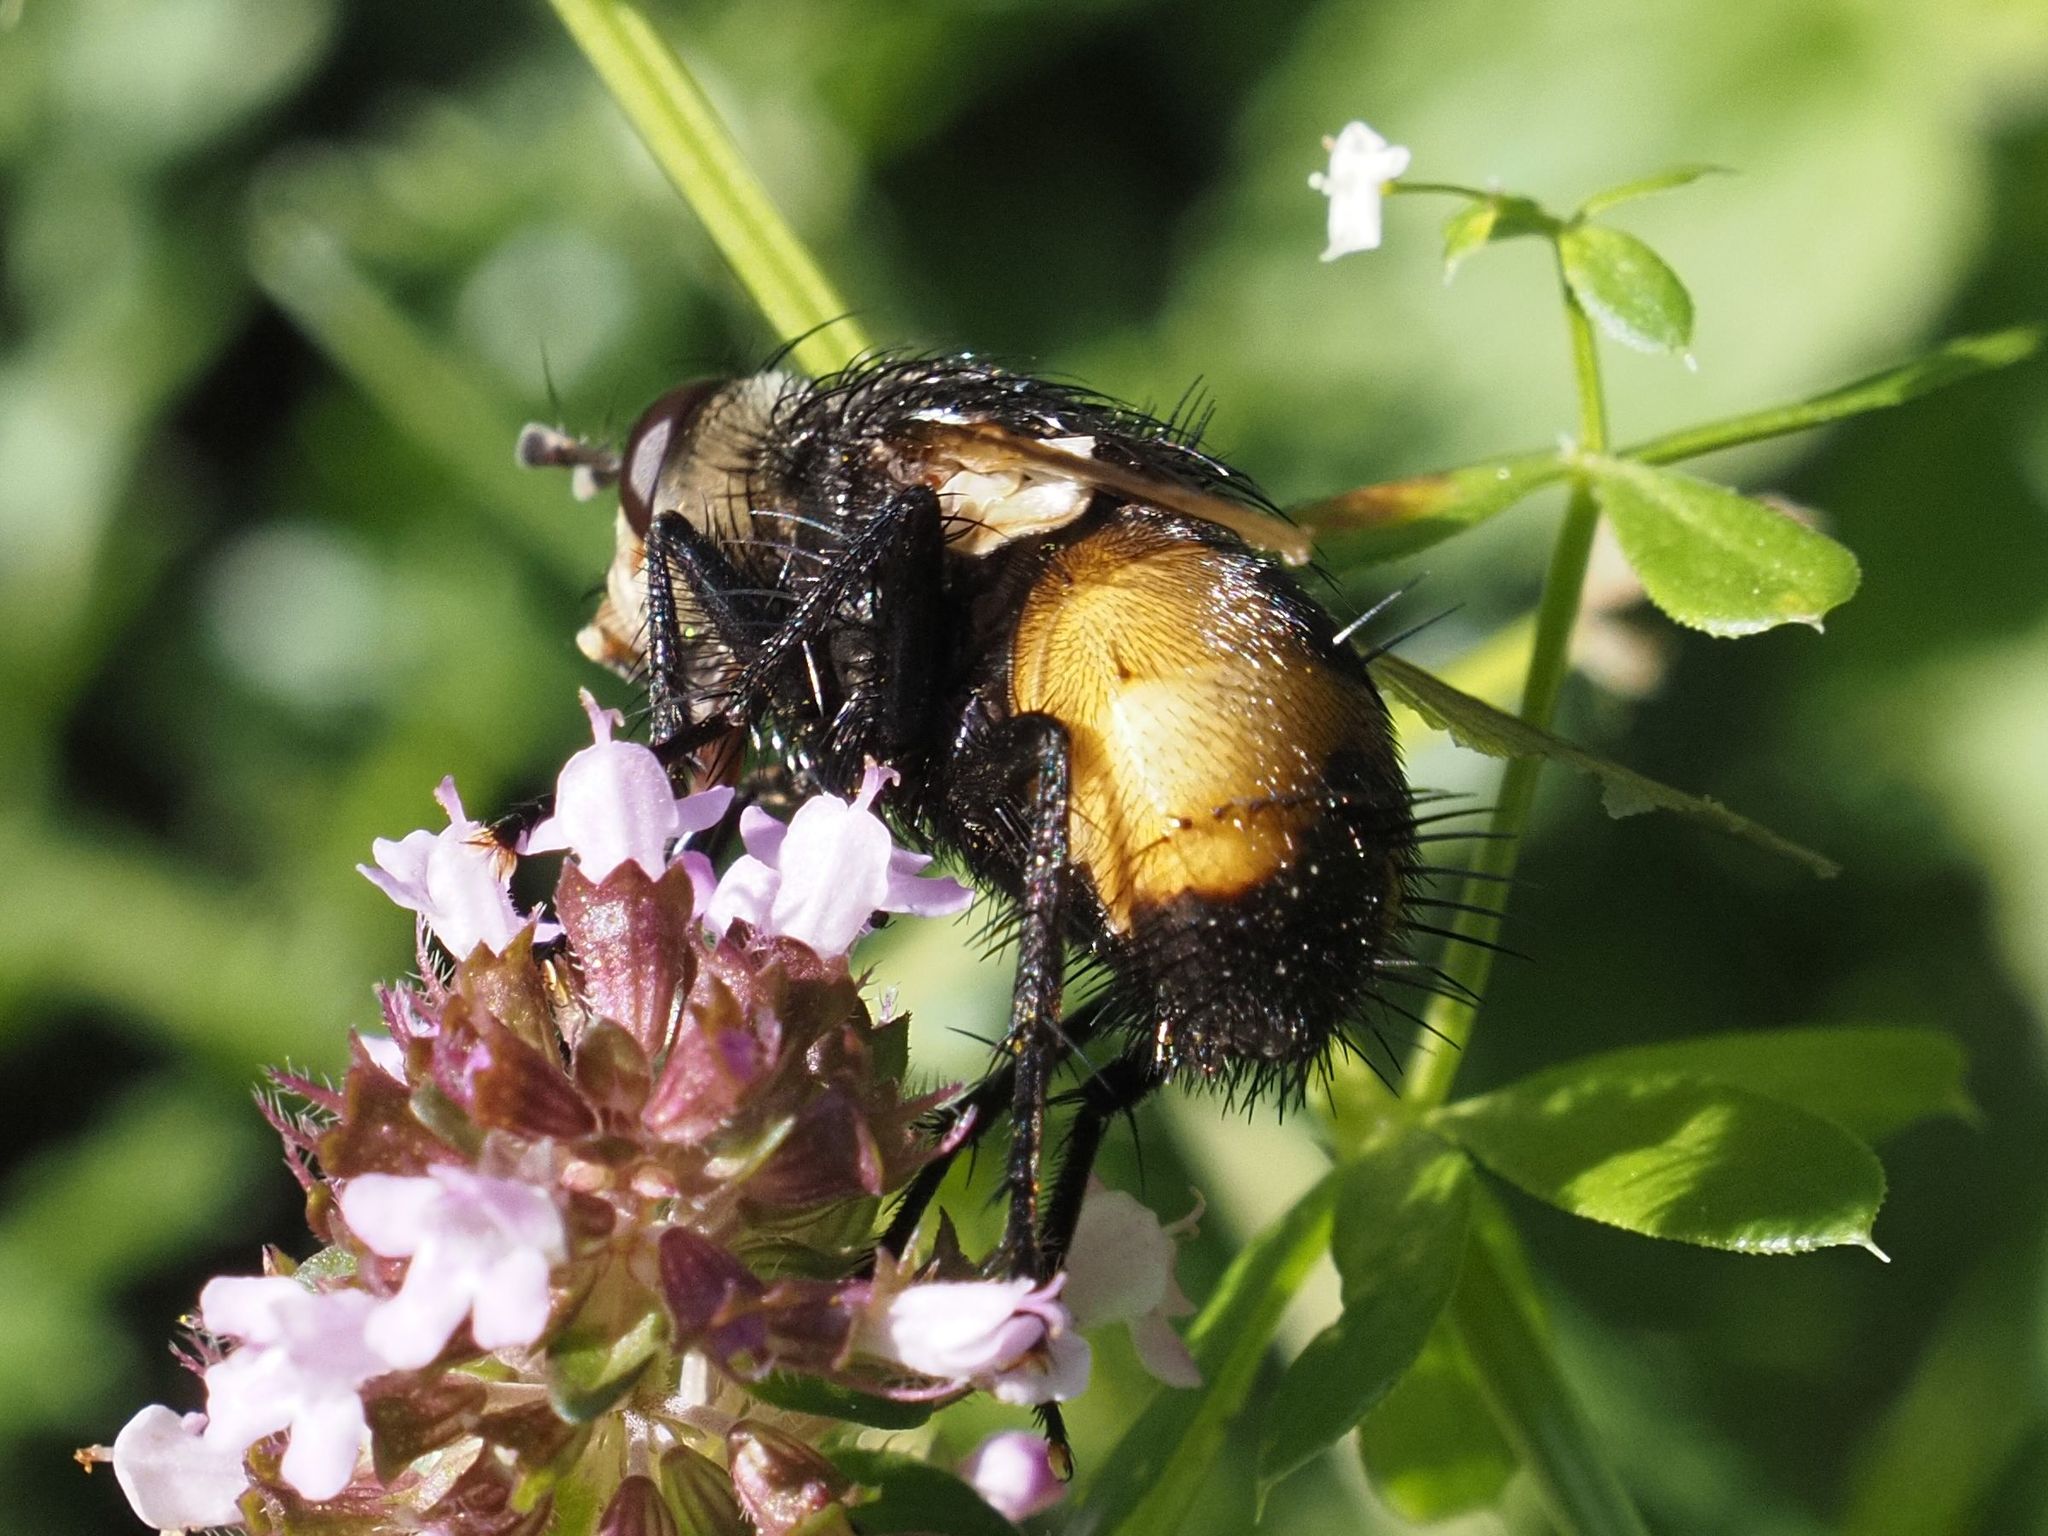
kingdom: Animalia
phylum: Arthropoda
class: Insecta
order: Diptera
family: Tachinidae
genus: Nowickia
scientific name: Nowickia ferox
